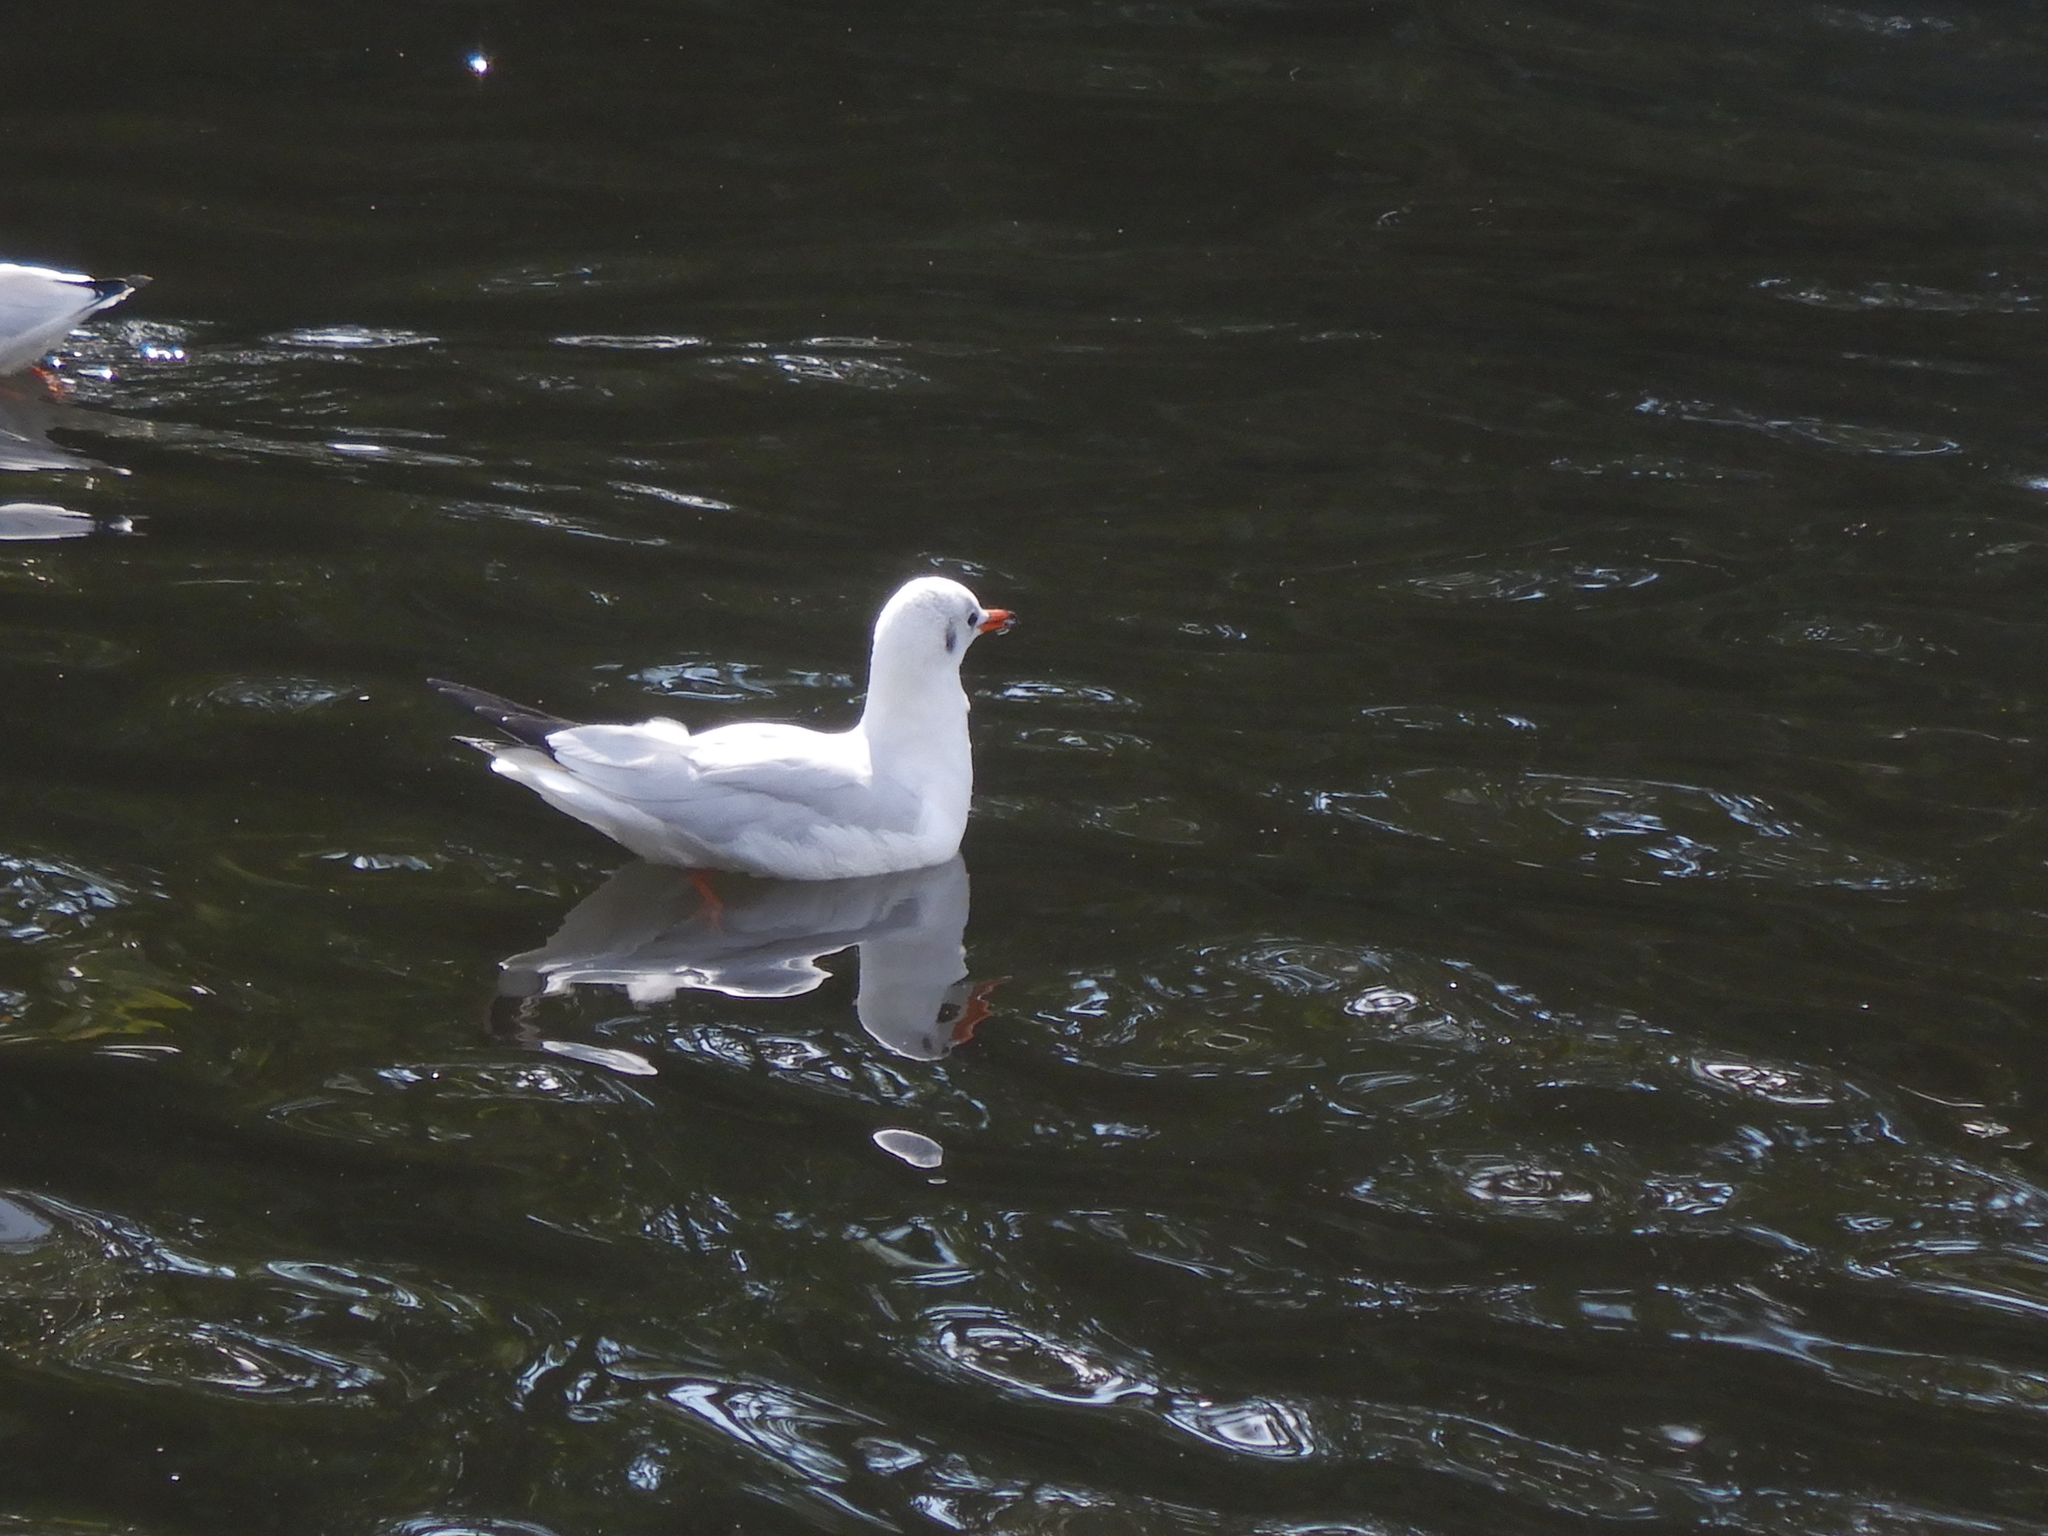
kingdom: Animalia
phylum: Chordata
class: Aves
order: Charadriiformes
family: Laridae
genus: Chroicocephalus
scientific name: Chroicocephalus ridibundus
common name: Black-headed gull
